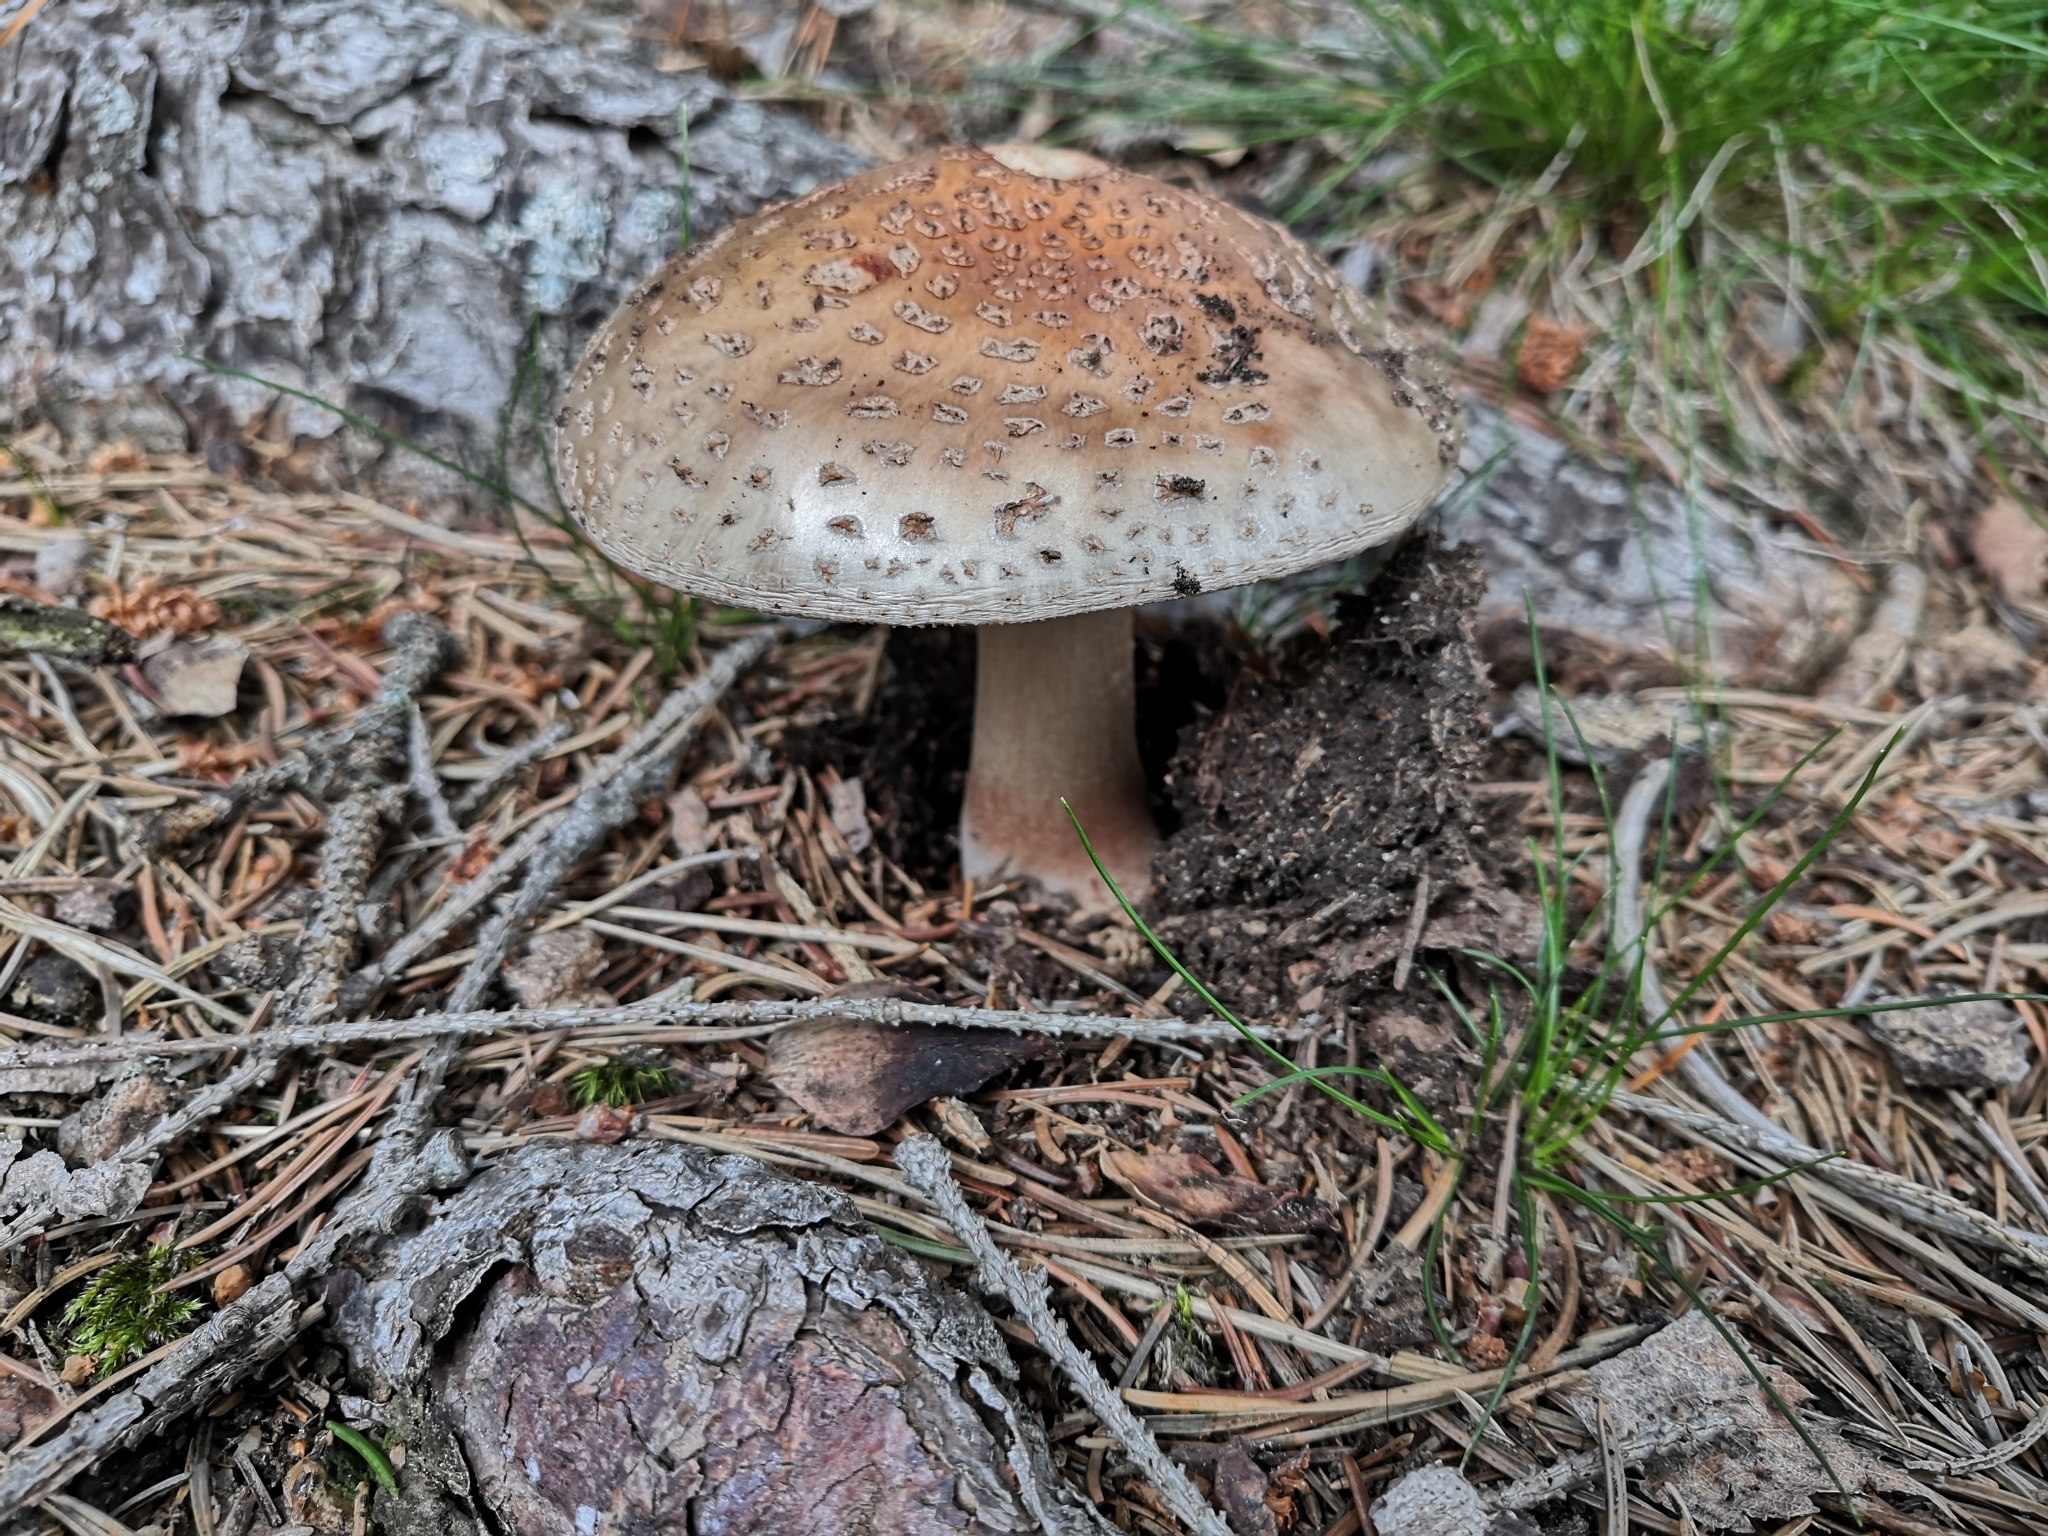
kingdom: Fungi
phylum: Basidiomycota
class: Agaricomycetes
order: Agaricales
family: Amanitaceae
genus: Amanita
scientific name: Amanita rubescens
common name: Blusher
